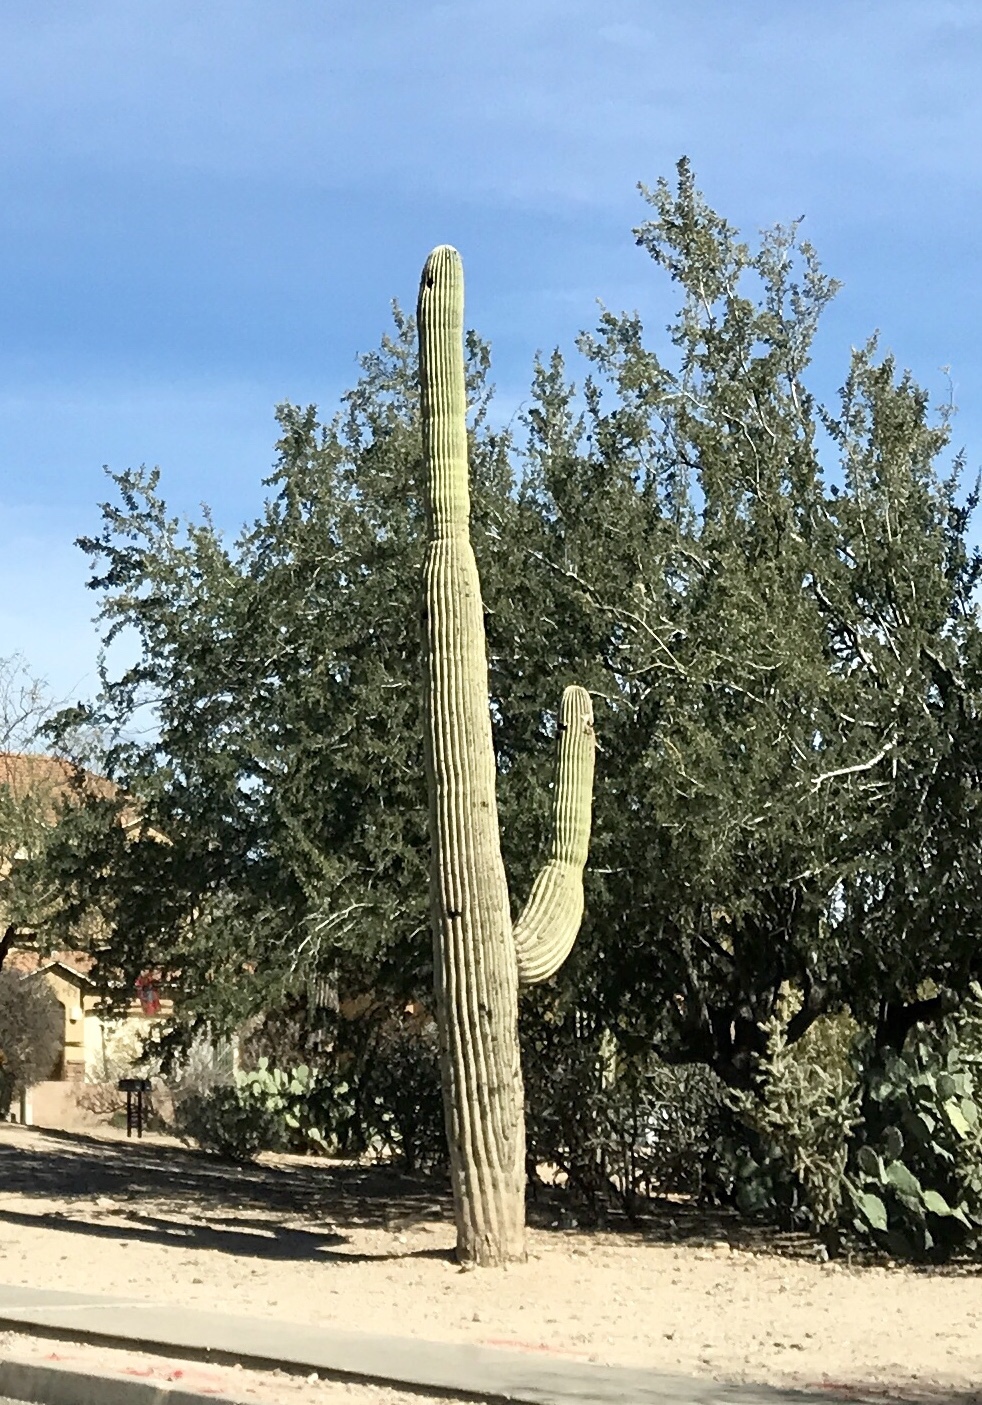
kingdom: Plantae
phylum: Tracheophyta
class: Magnoliopsida
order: Caryophyllales
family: Cactaceae
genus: Carnegiea
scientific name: Carnegiea gigantea
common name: Saguaro
